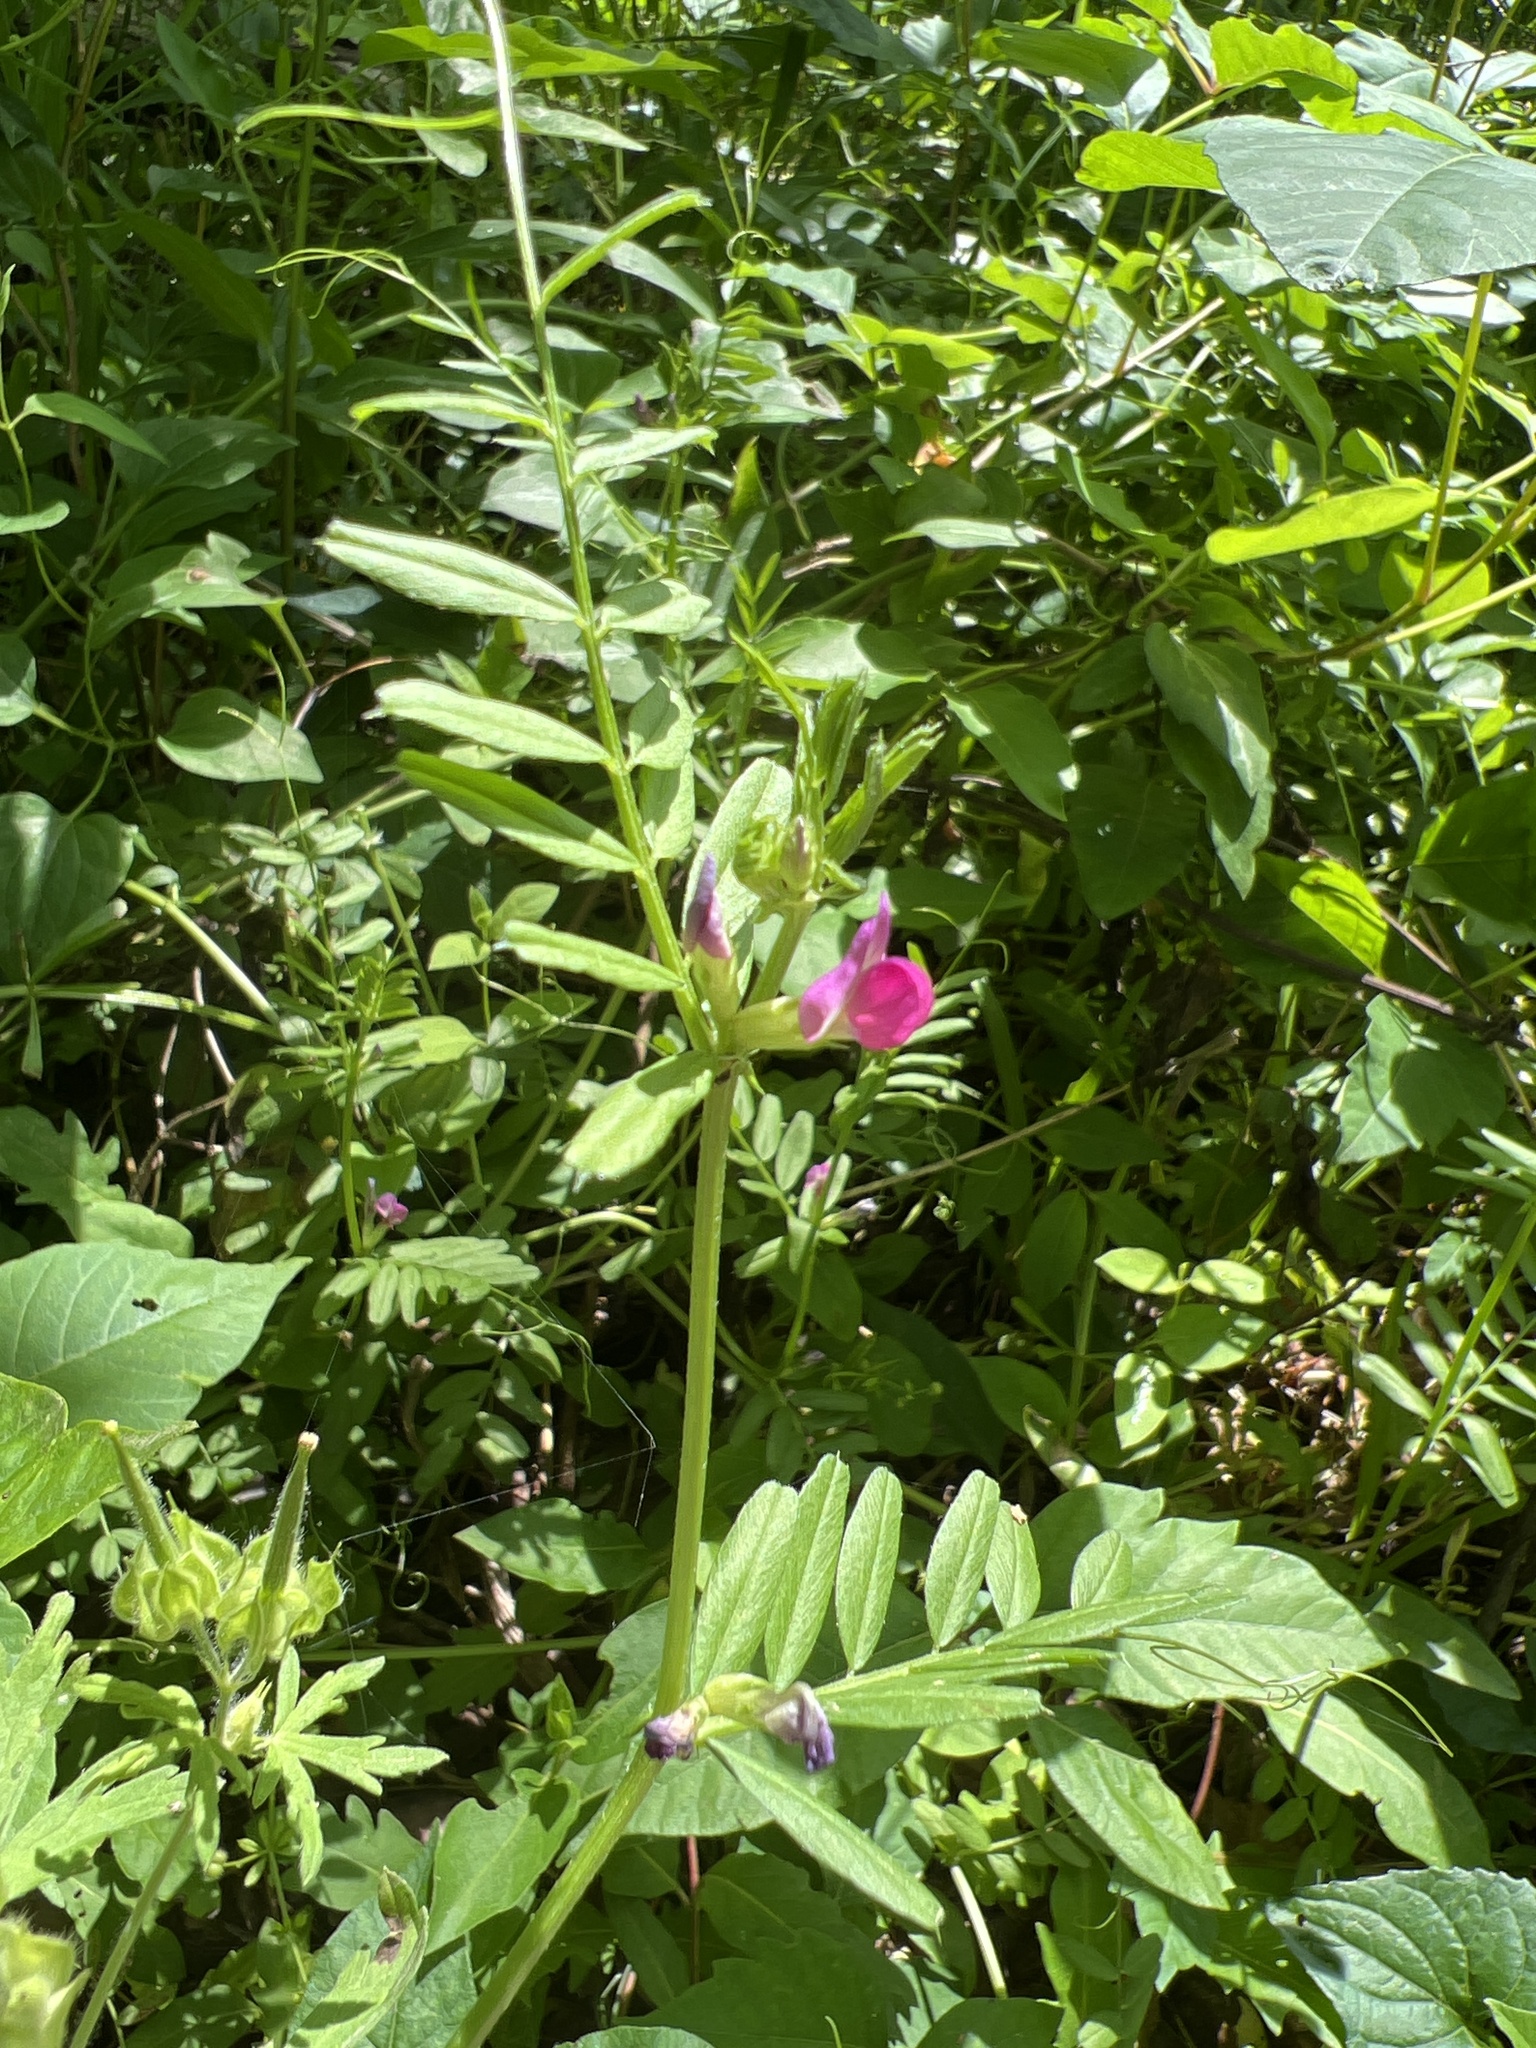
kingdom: Plantae
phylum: Tracheophyta
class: Magnoliopsida
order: Fabales
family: Fabaceae
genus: Vicia
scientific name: Vicia sativa
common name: Garden vetch
